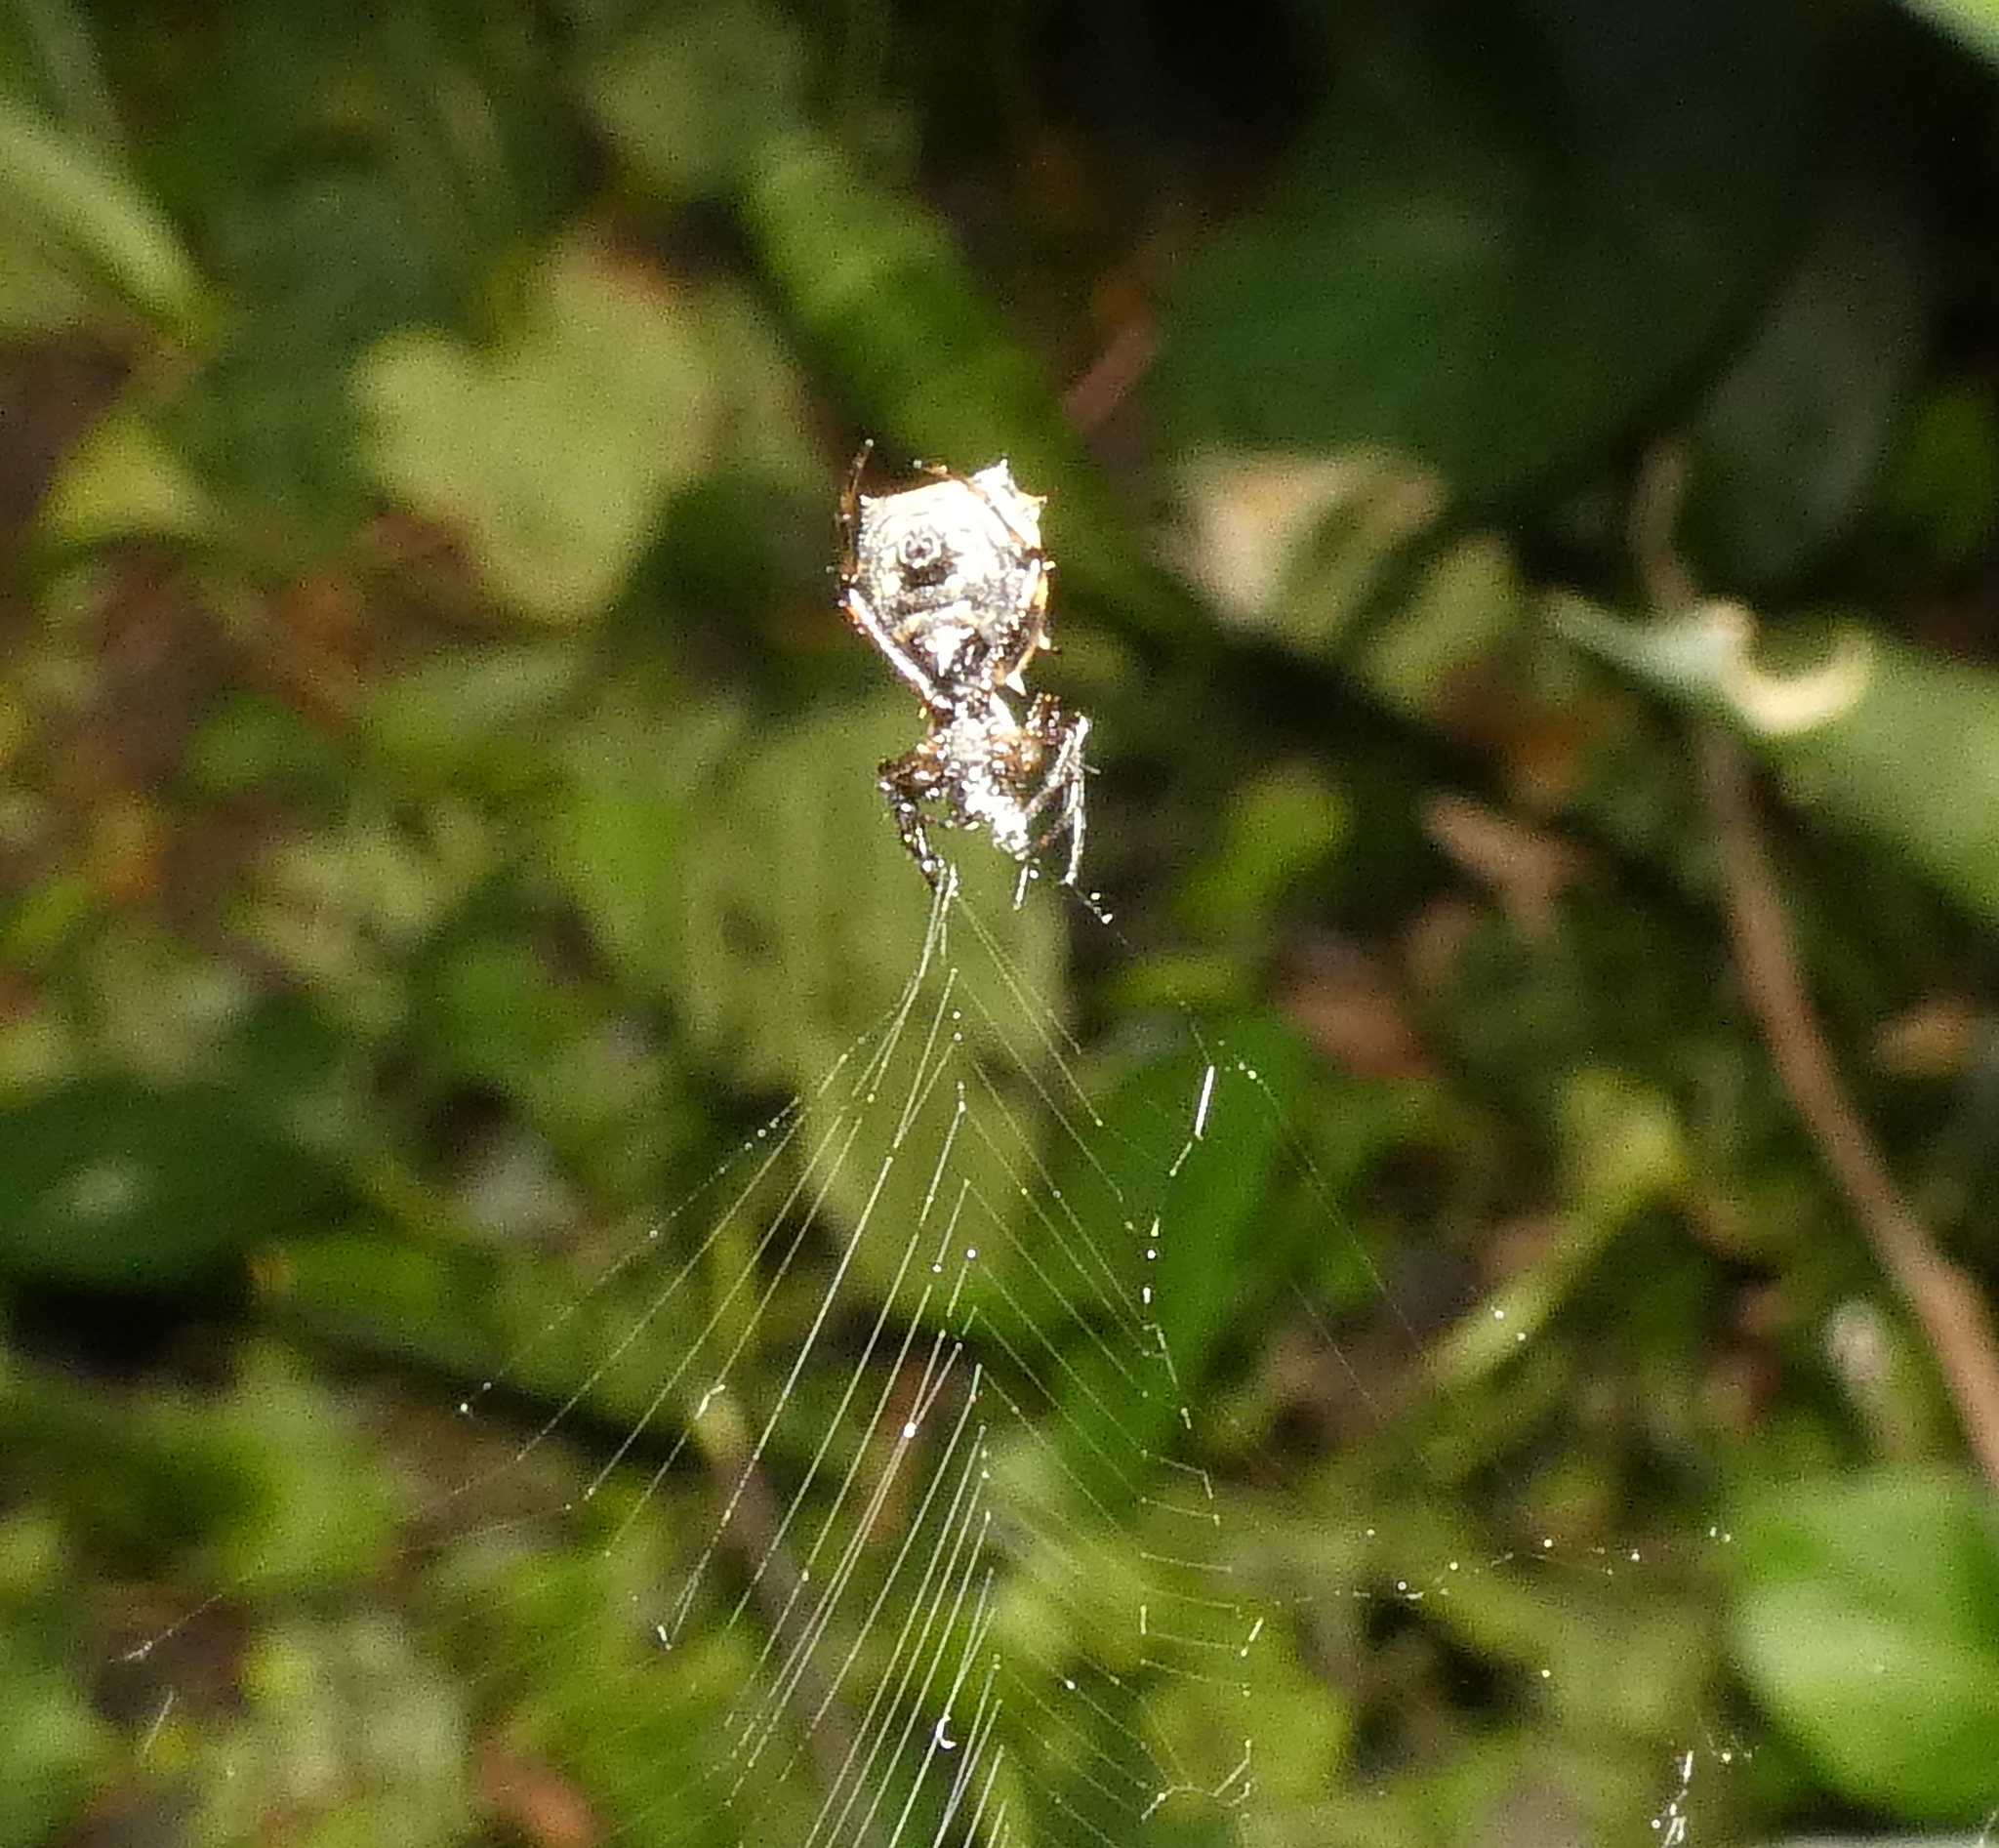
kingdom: Animalia
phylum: Arthropoda
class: Arachnida
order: Araneae
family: Araneidae
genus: Micrathena
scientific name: Micrathena picta
